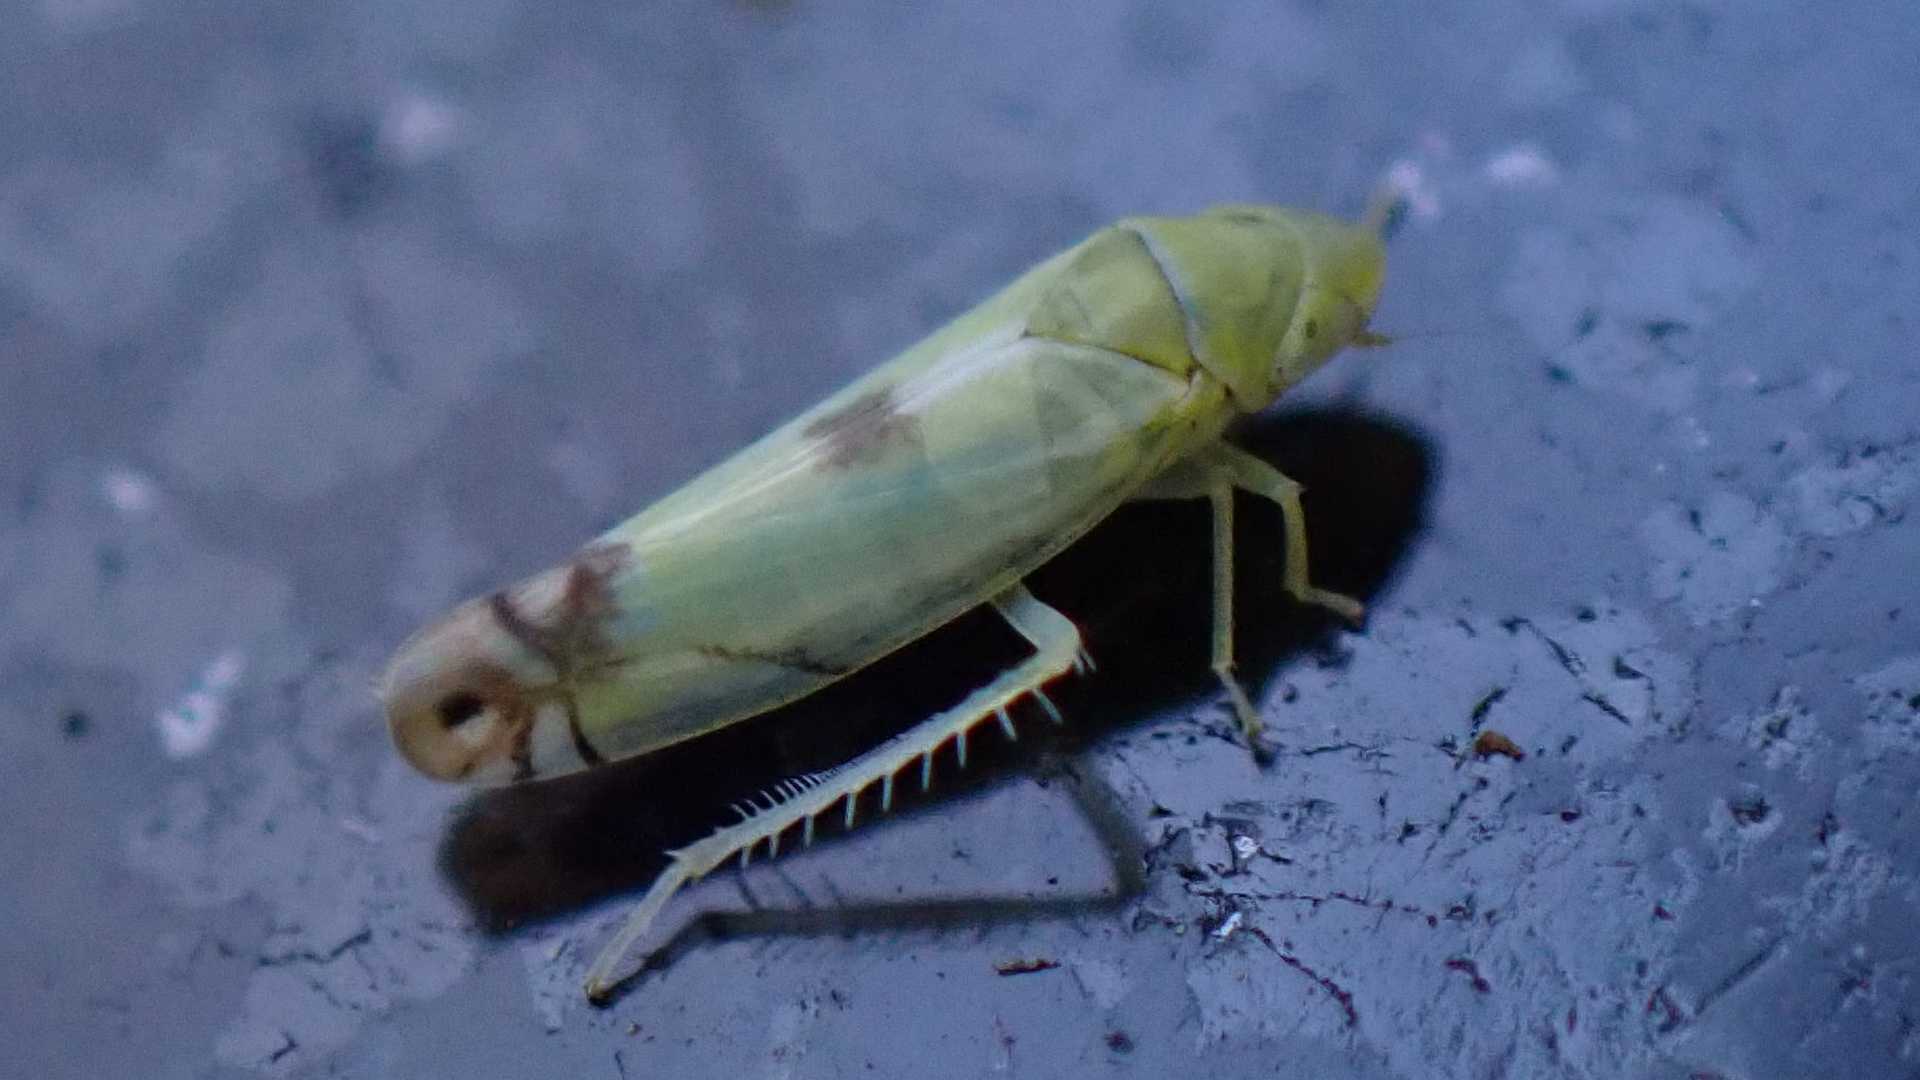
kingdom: Animalia
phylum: Arthropoda
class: Insecta
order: Hemiptera
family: Cicadellidae
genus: Zyginella
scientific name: Zyginella pulchra
